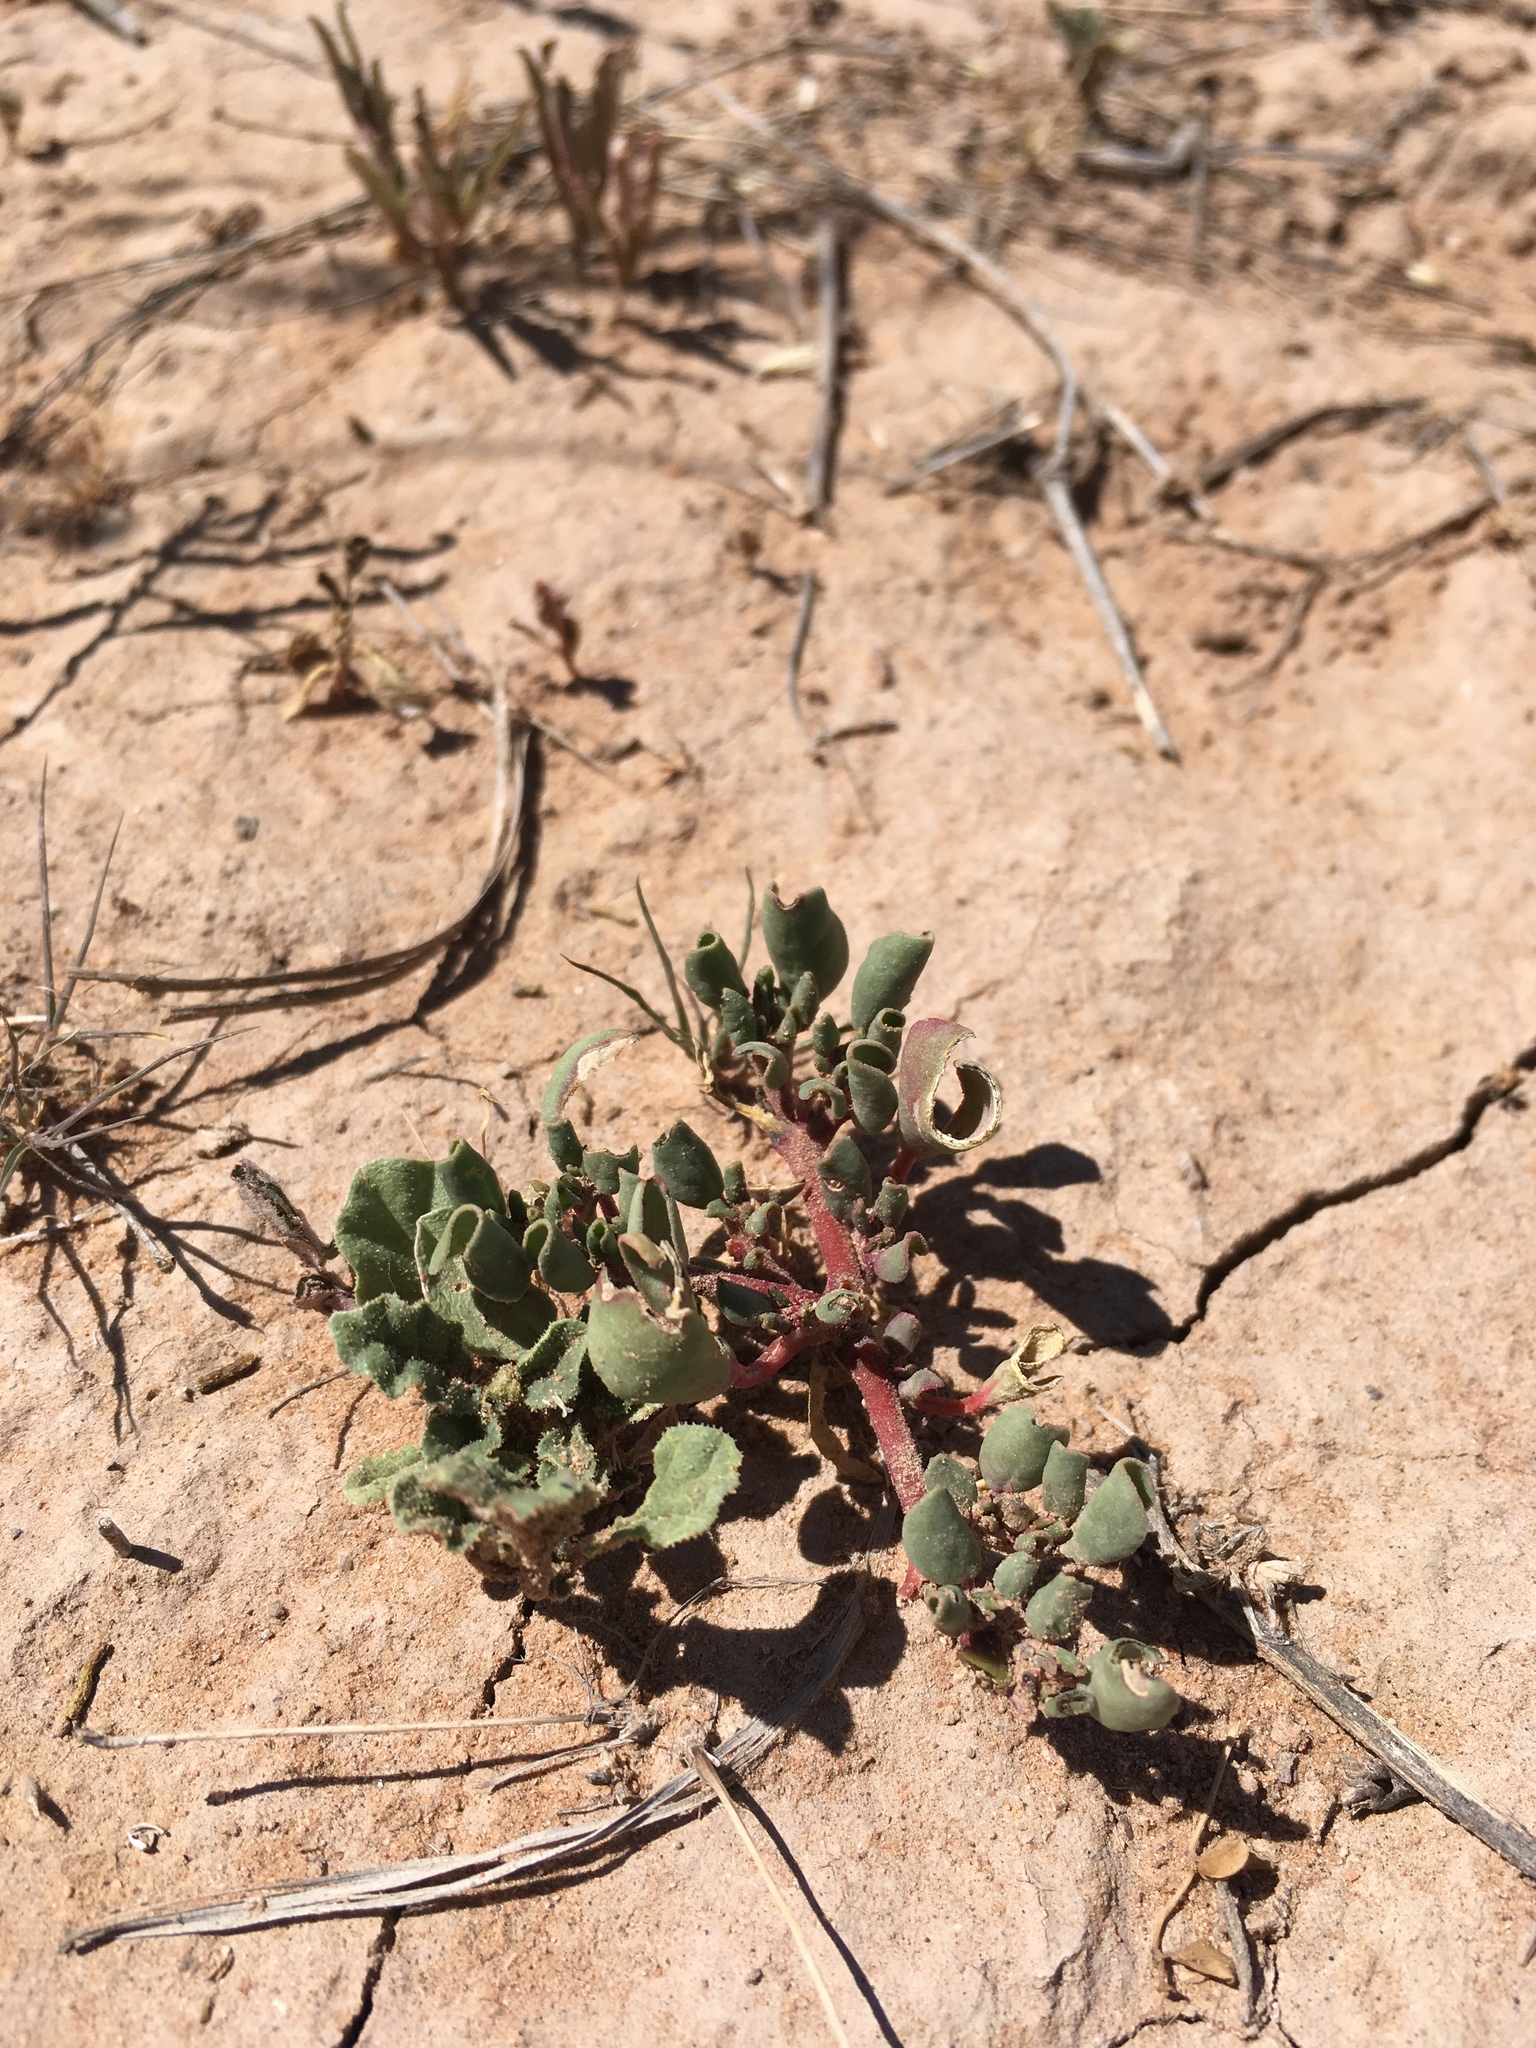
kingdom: Plantae
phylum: Tracheophyta
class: Magnoliopsida
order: Caryophyllales
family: Aizoaceae
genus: Trianthema
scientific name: Trianthema portulacastrum
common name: Desert horsepurslane
